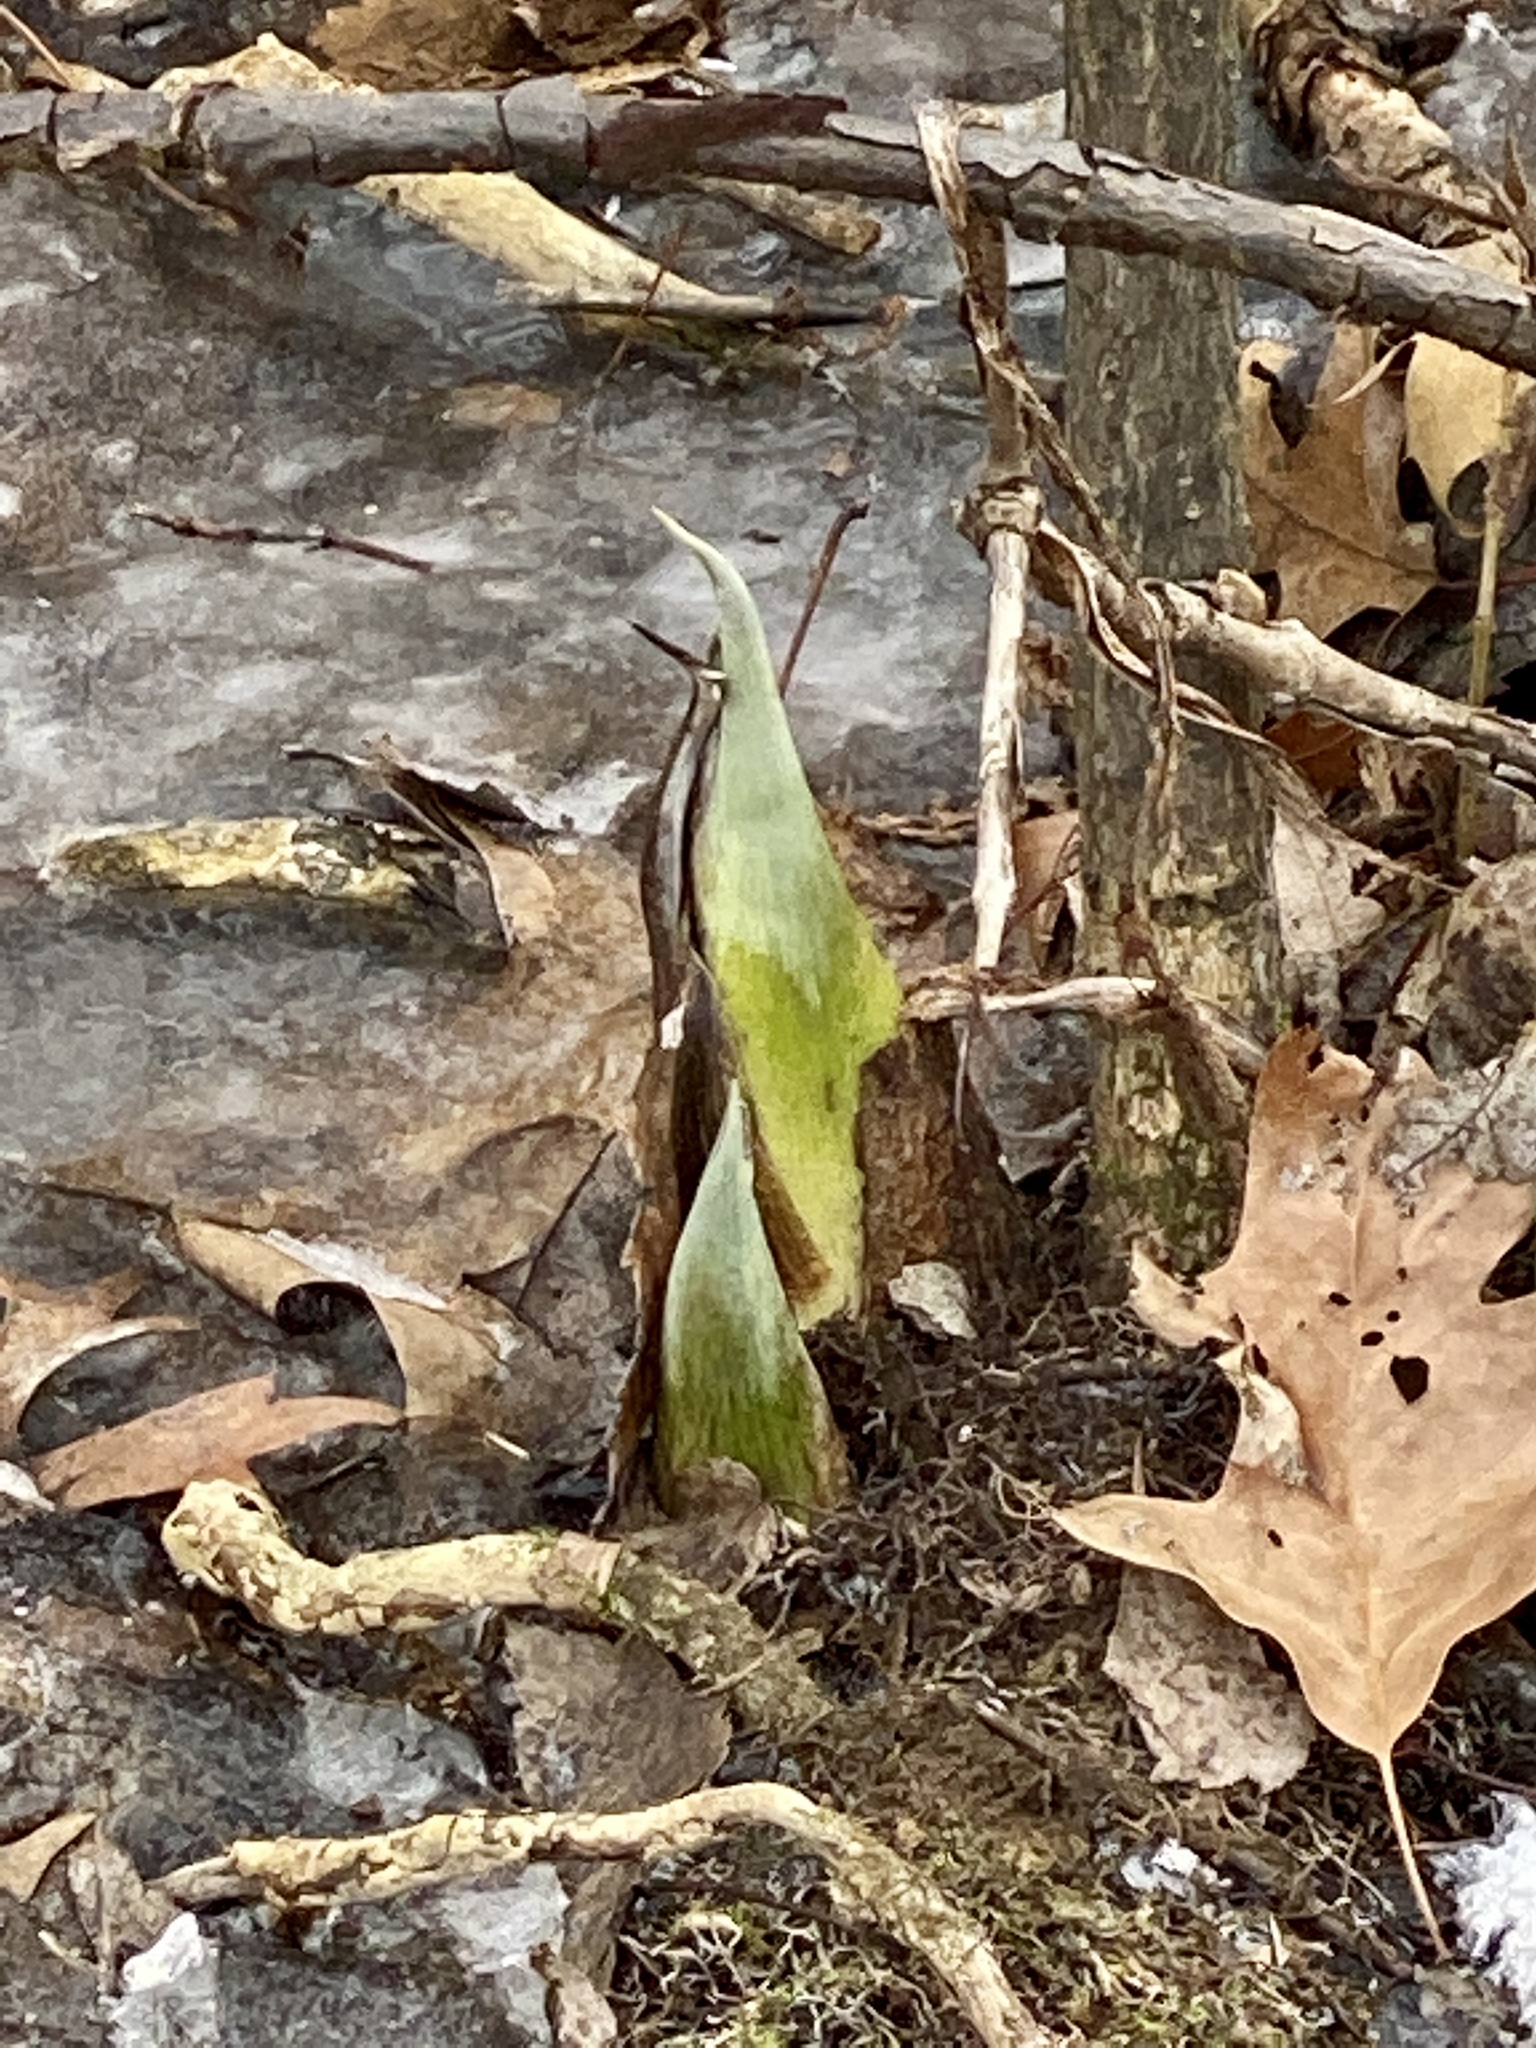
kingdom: Plantae
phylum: Tracheophyta
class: Liliopsida
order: Alismatales
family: Araceae
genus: Symplocarpus
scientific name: Symplocarpus foetidus
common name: Eastern skunk cabbage
